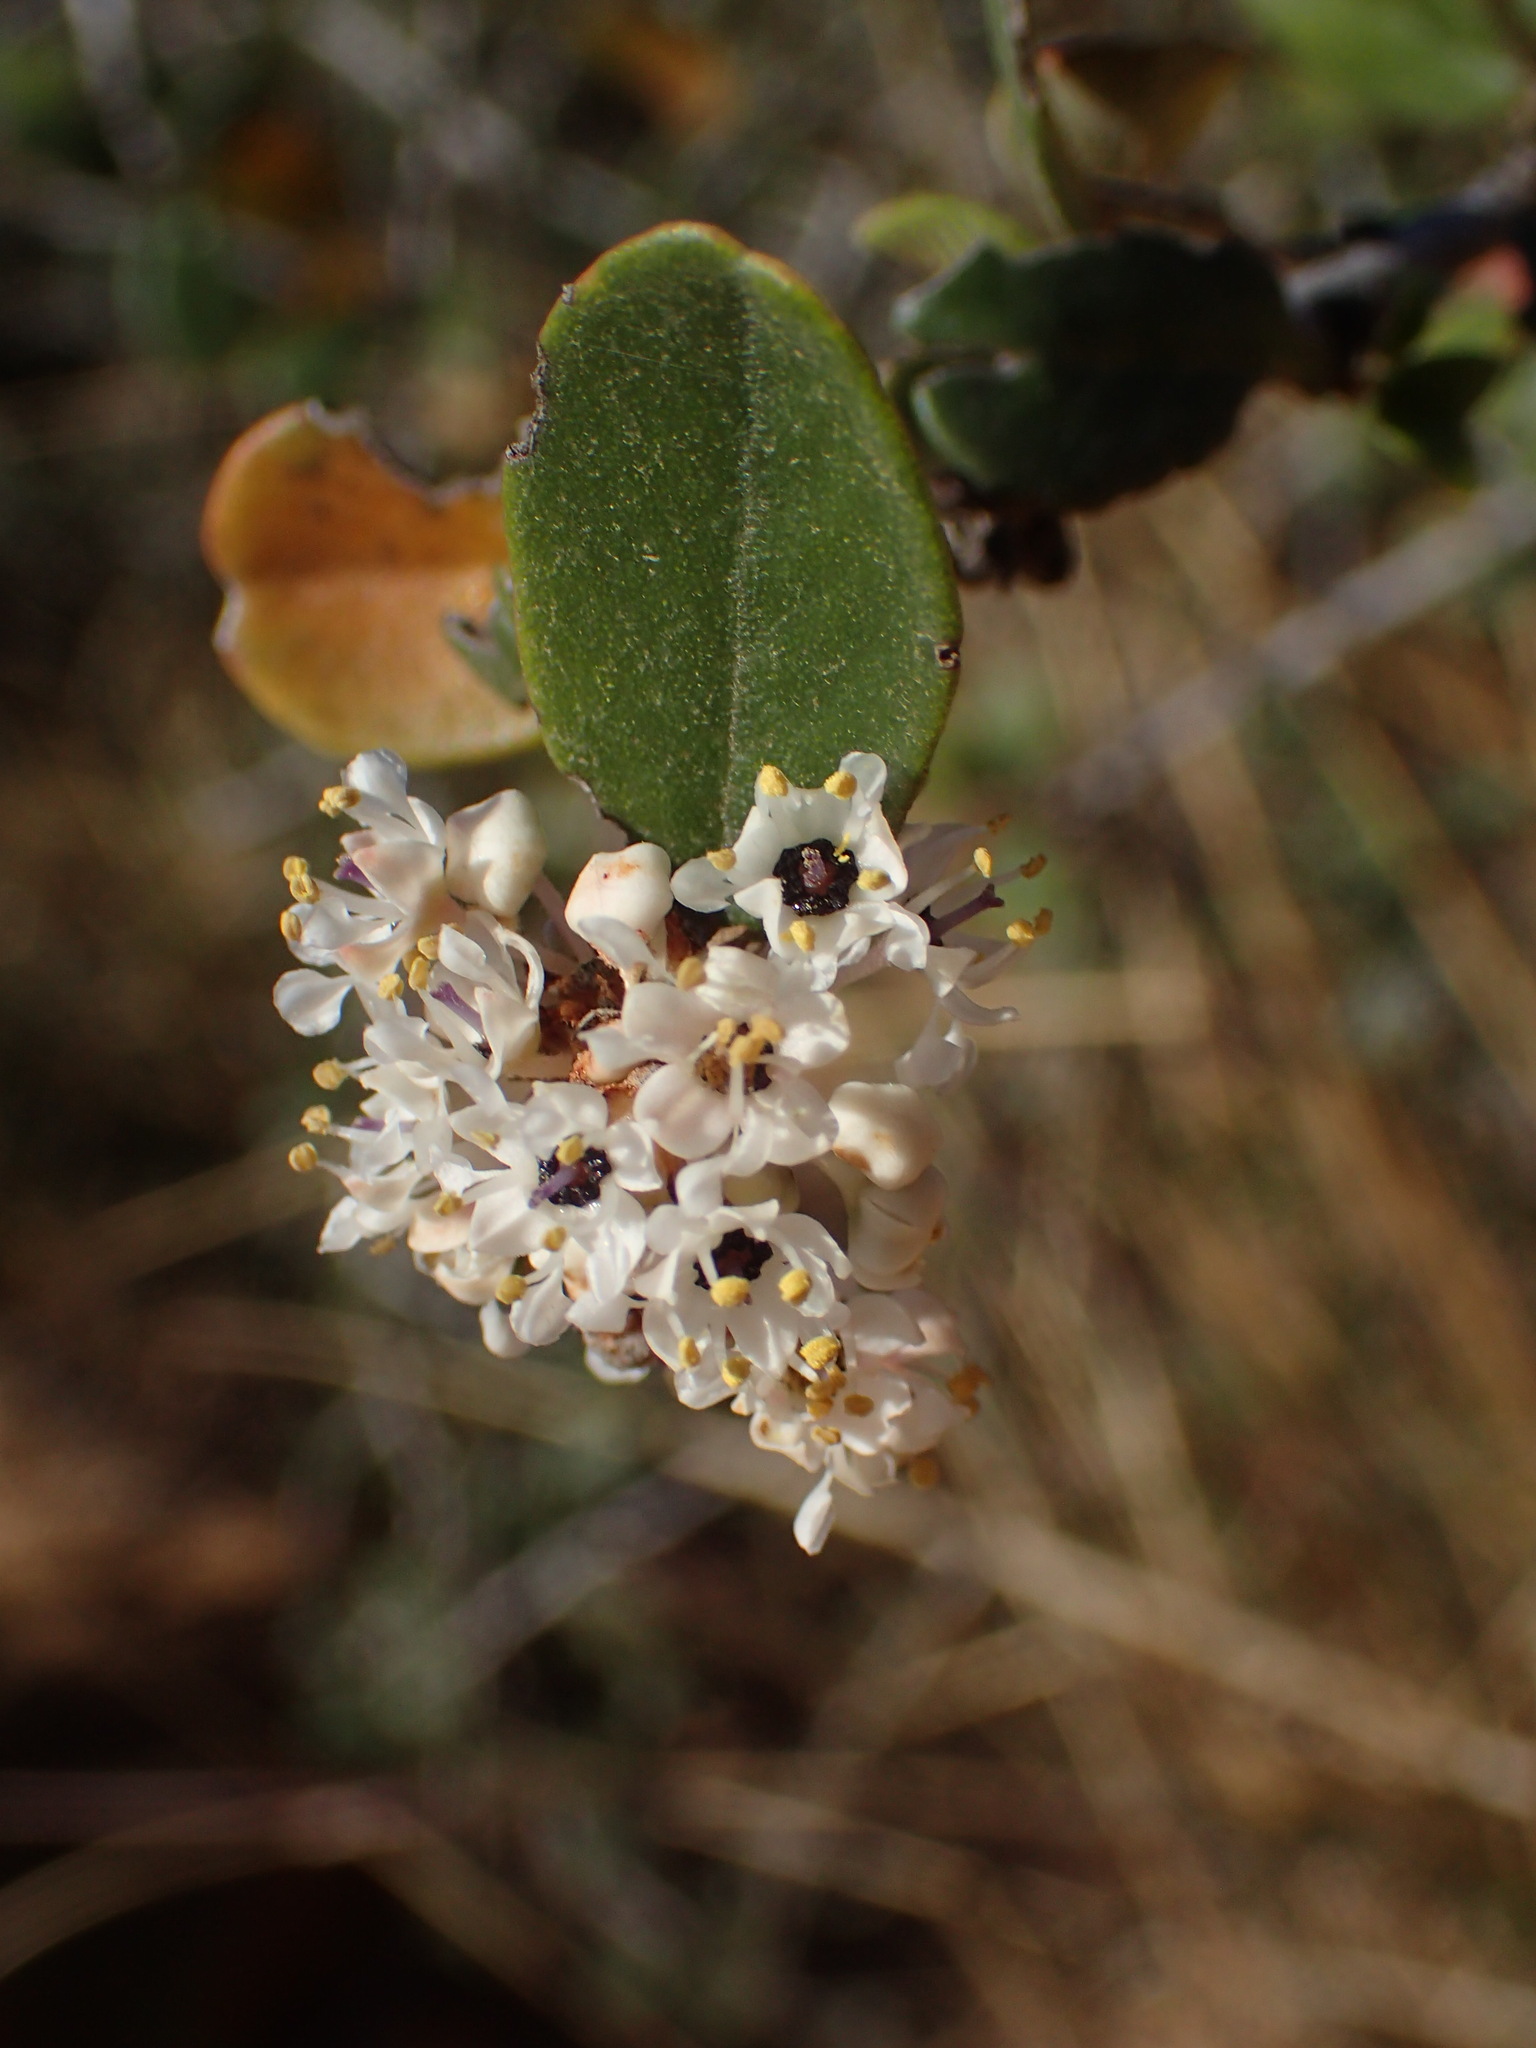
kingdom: Plantae
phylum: Tracheophyta
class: Magnoliopsida
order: Rosales
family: Rhamnaceae
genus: Ceanothus
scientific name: Ceanothus megacarpus
